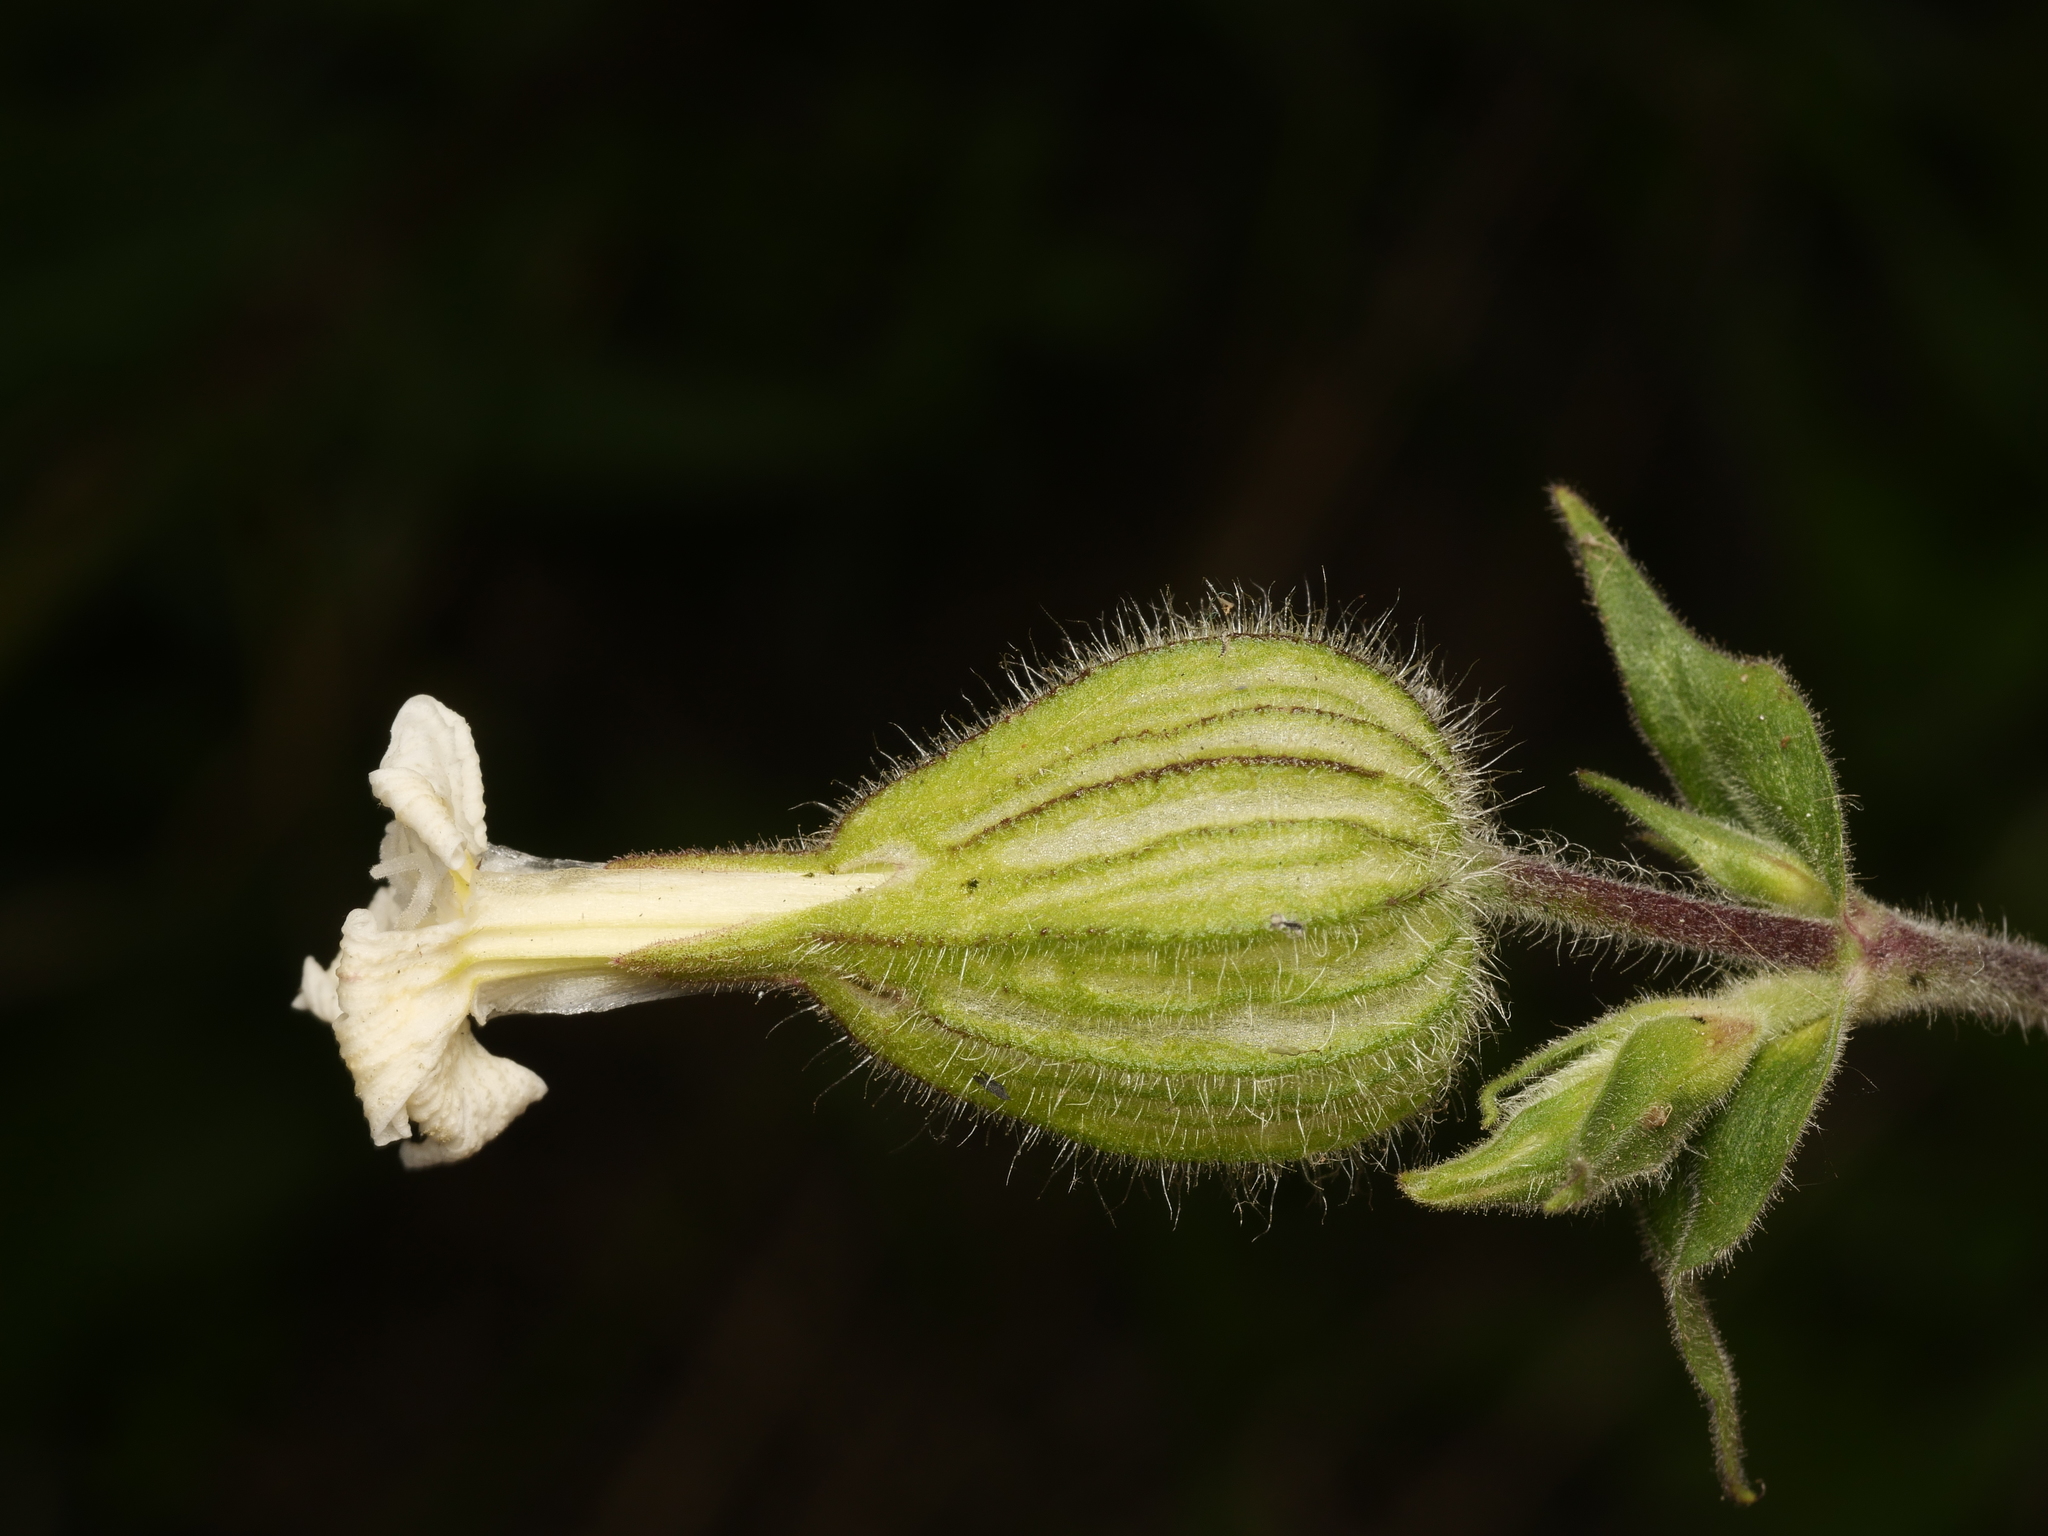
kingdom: Plantae
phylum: Tracheophyta
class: Magnoliopsida
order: Caryophyllales
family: Caryophyllaceae
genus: Silene
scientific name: Silene latifolia
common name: White campion
